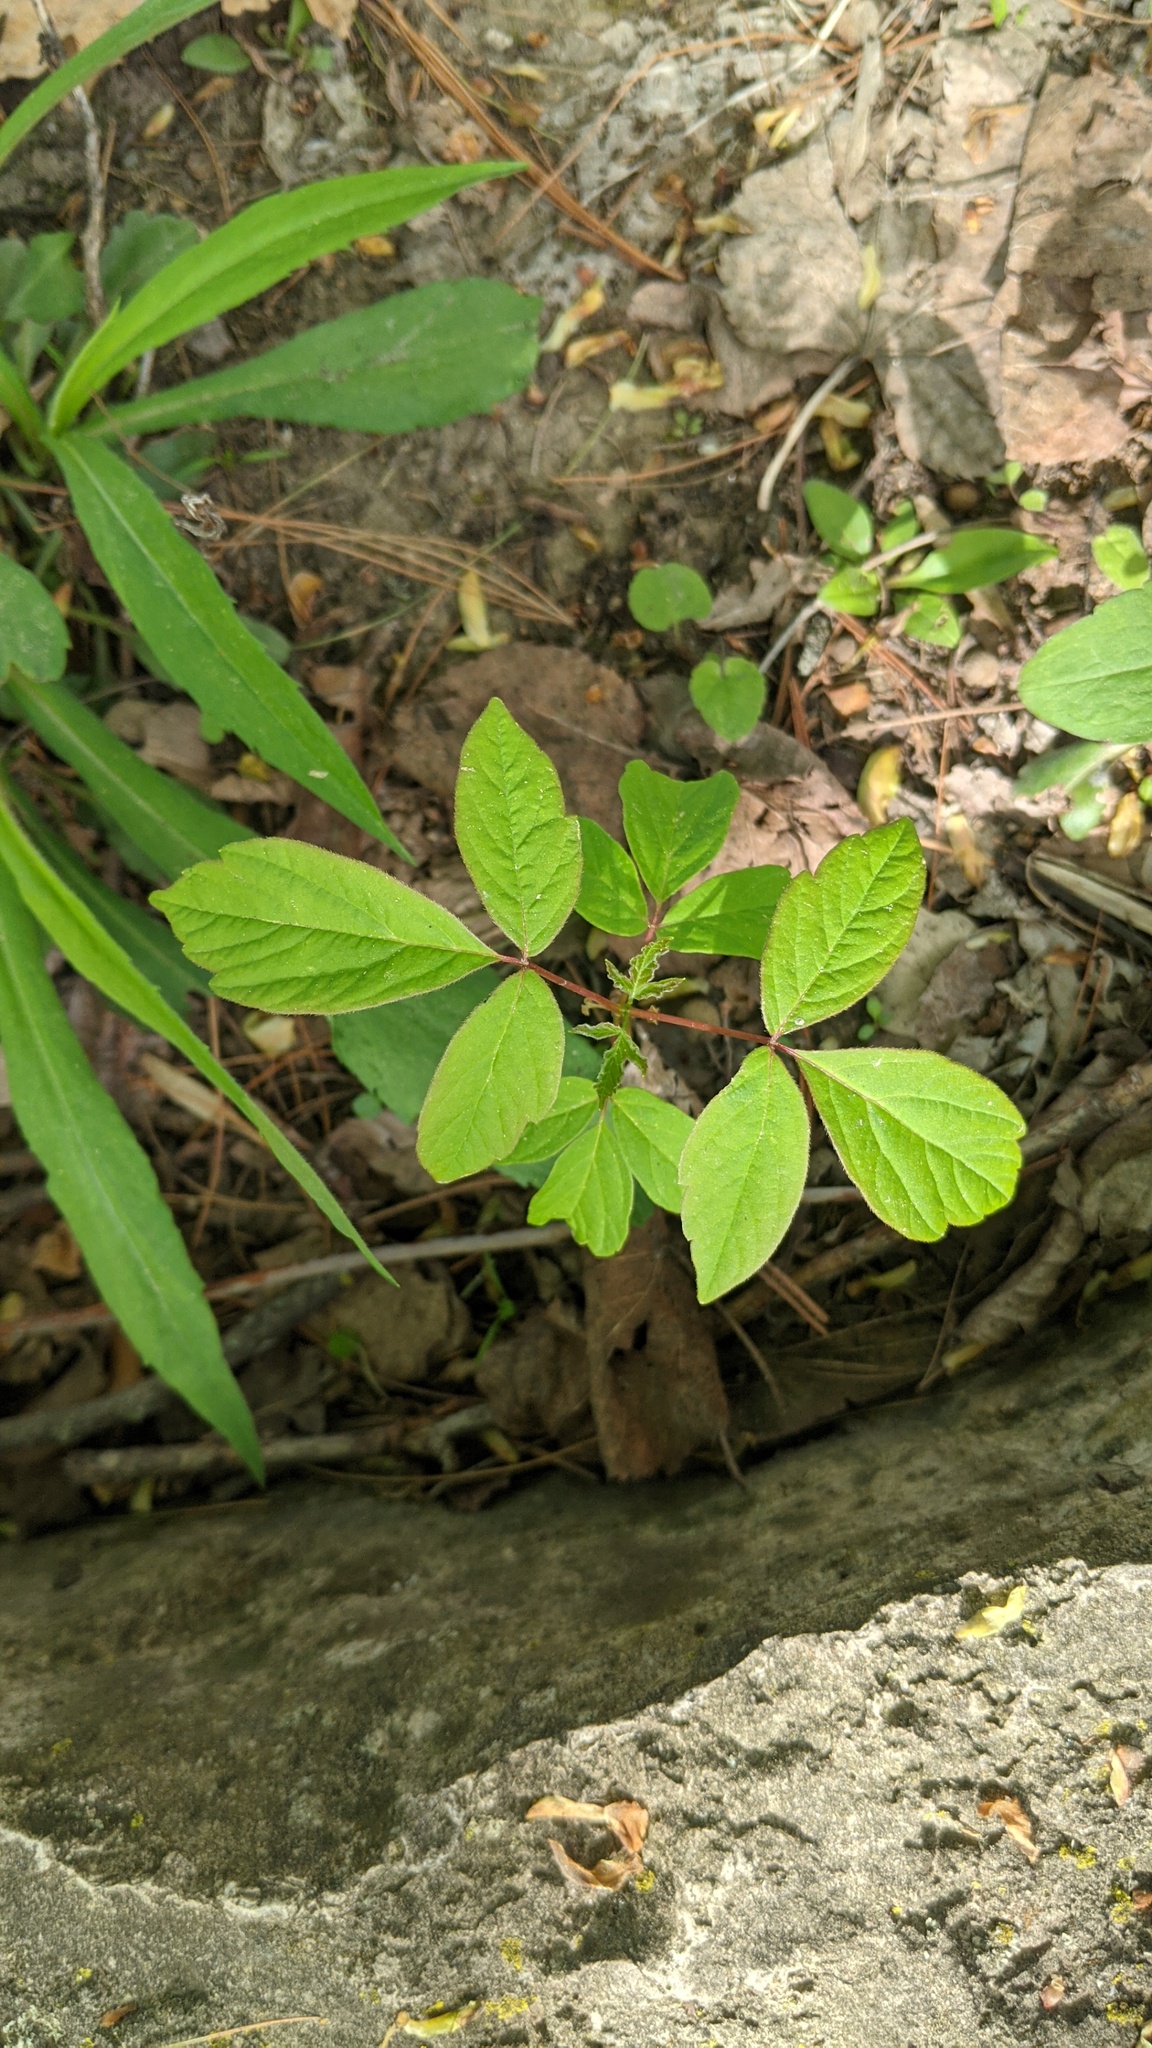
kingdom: Plantae
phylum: Tracheophyta
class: Magnoliopsida
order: Sapindales
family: Sapindaceae
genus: Acer
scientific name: Acer negundo
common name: Ashleaf maple
